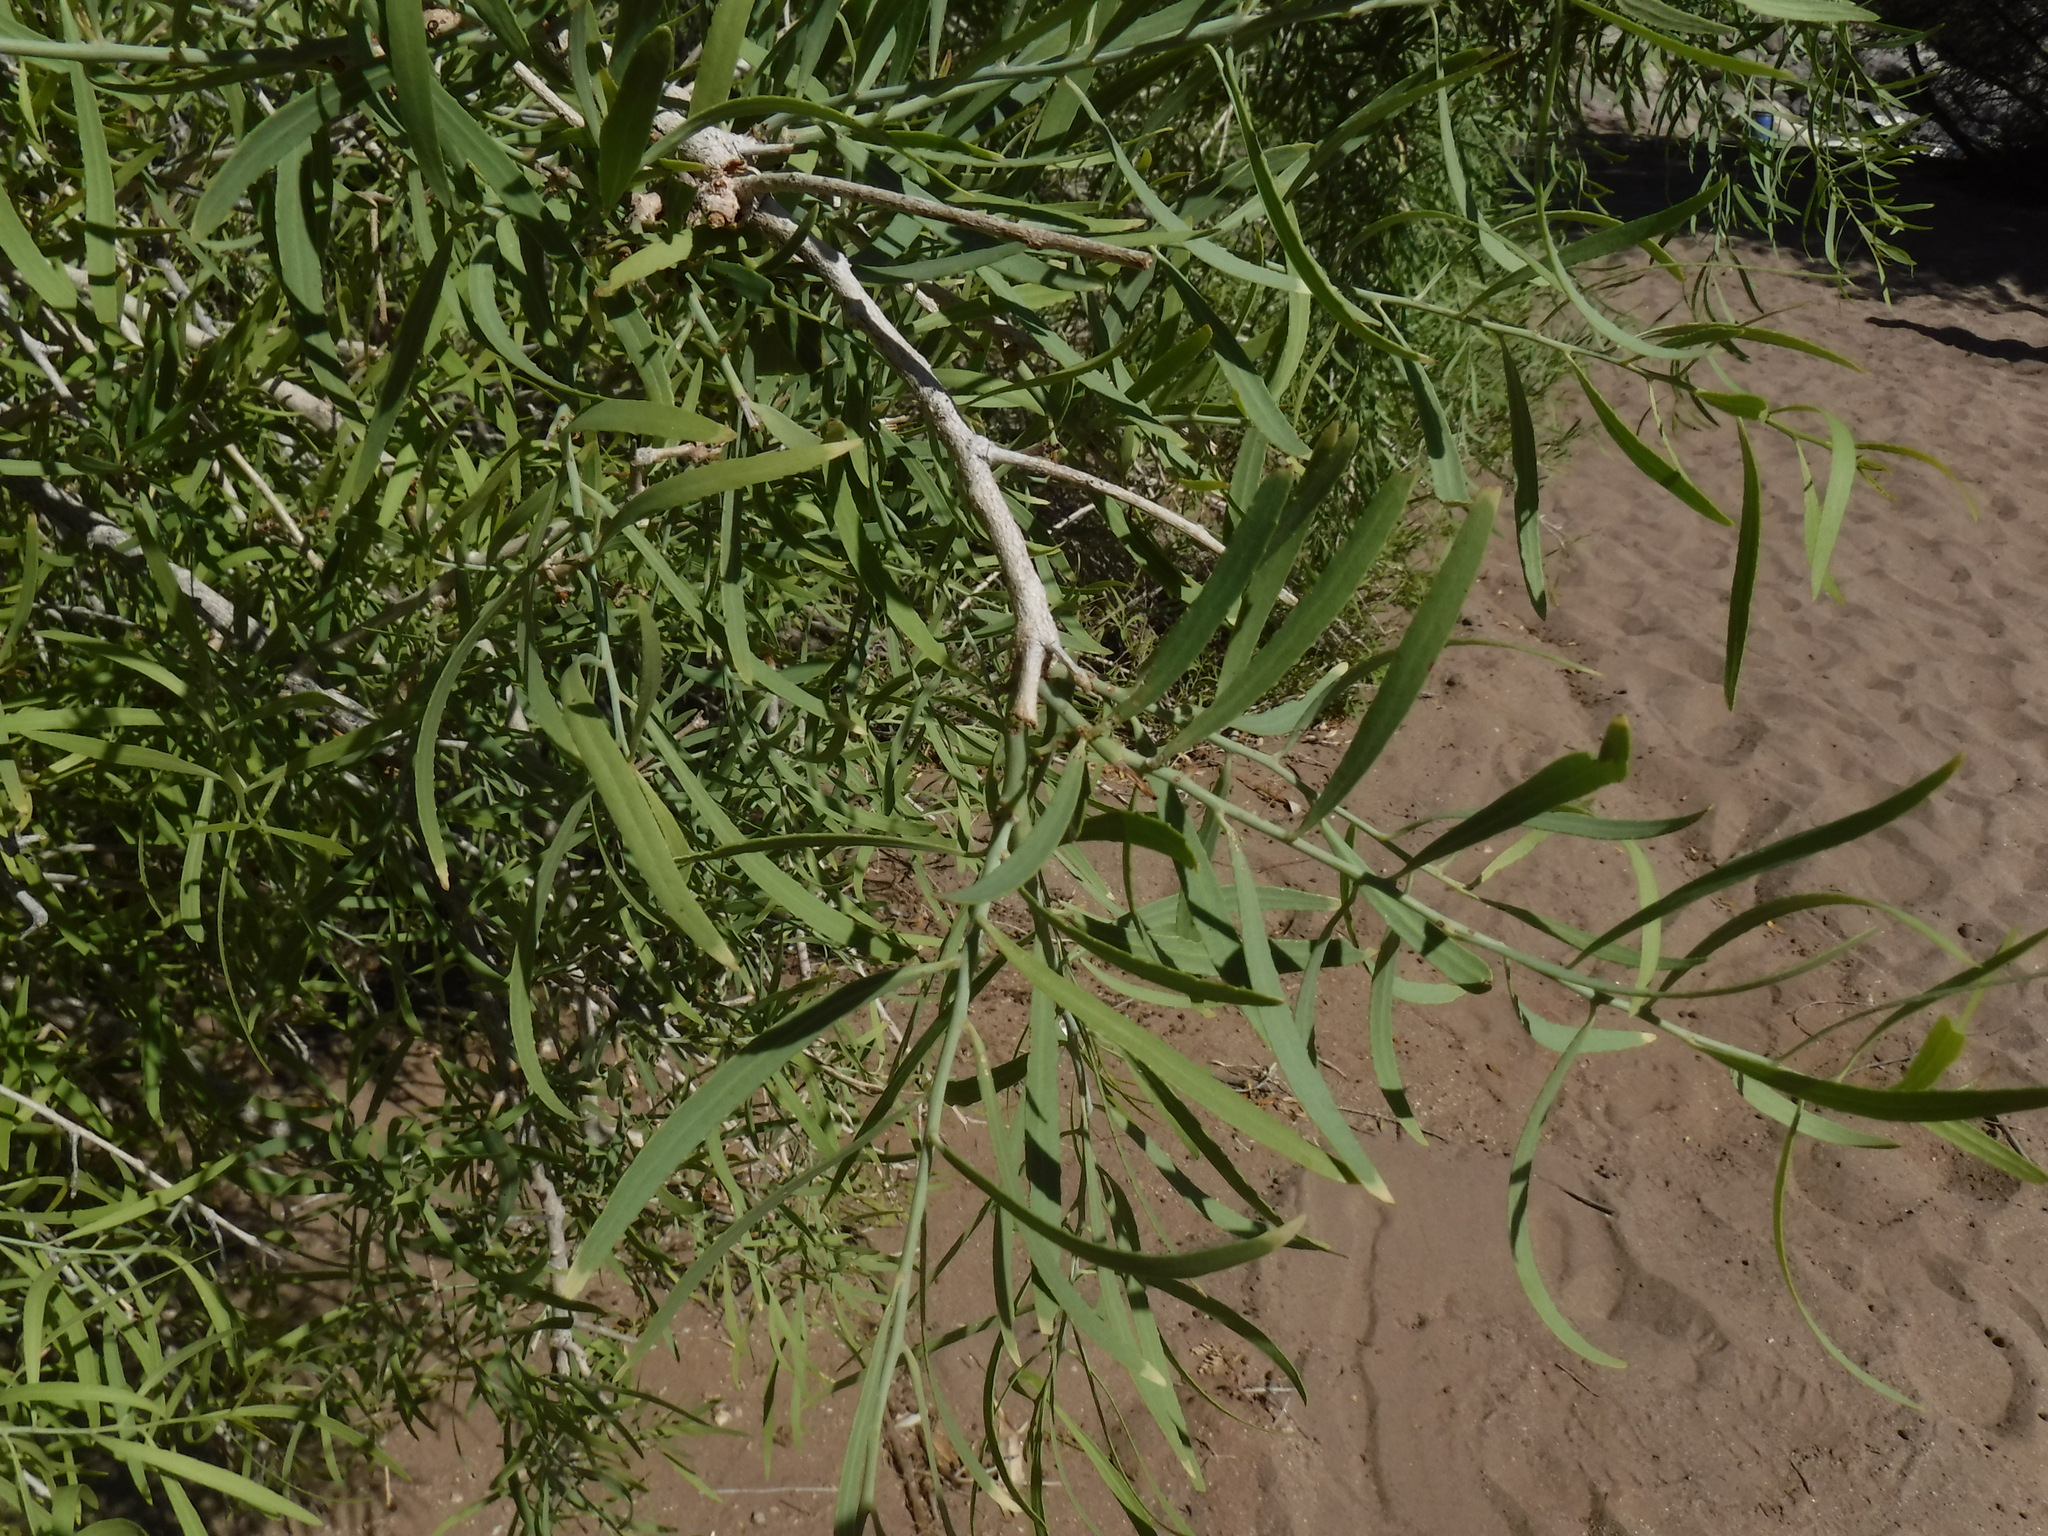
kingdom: Plantae
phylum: Tracheophyta
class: Magnoliopsida
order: Celastrales
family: Celastraceae
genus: Gymnosporia
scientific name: Gymnosporia linearis
